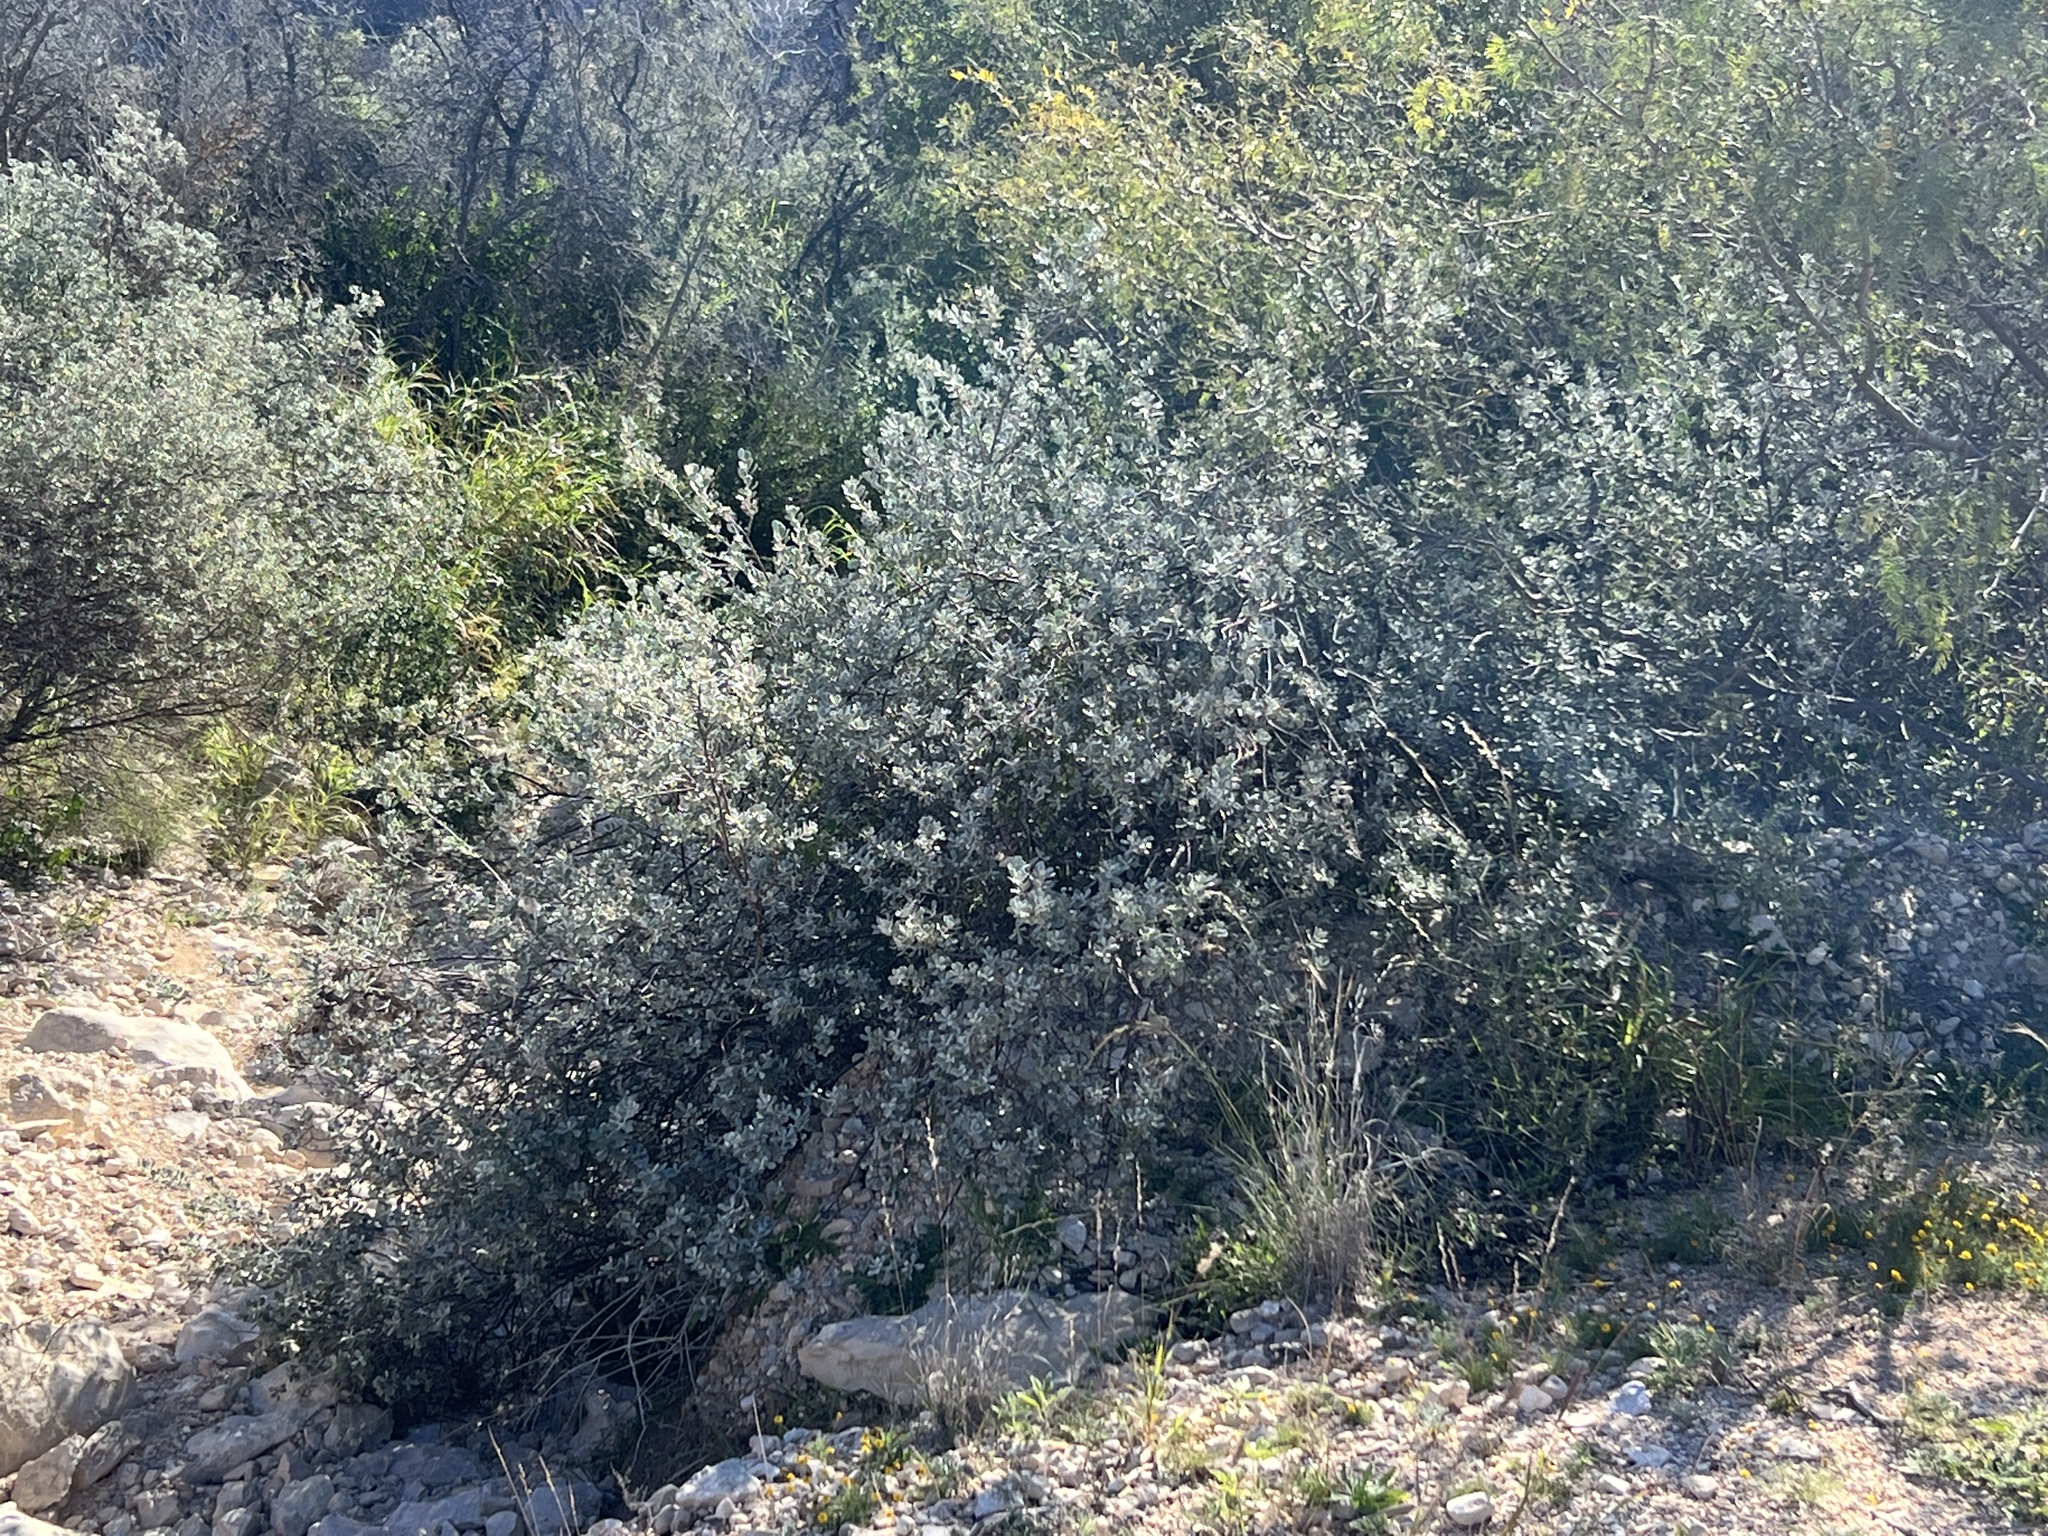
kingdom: Plantae
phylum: Tracheophyta
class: Magnoliopsida
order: Lamiales
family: Scrophulariaceae
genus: Leucophyllum
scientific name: Leucophyllum frutescens
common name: Texas silverleaf
